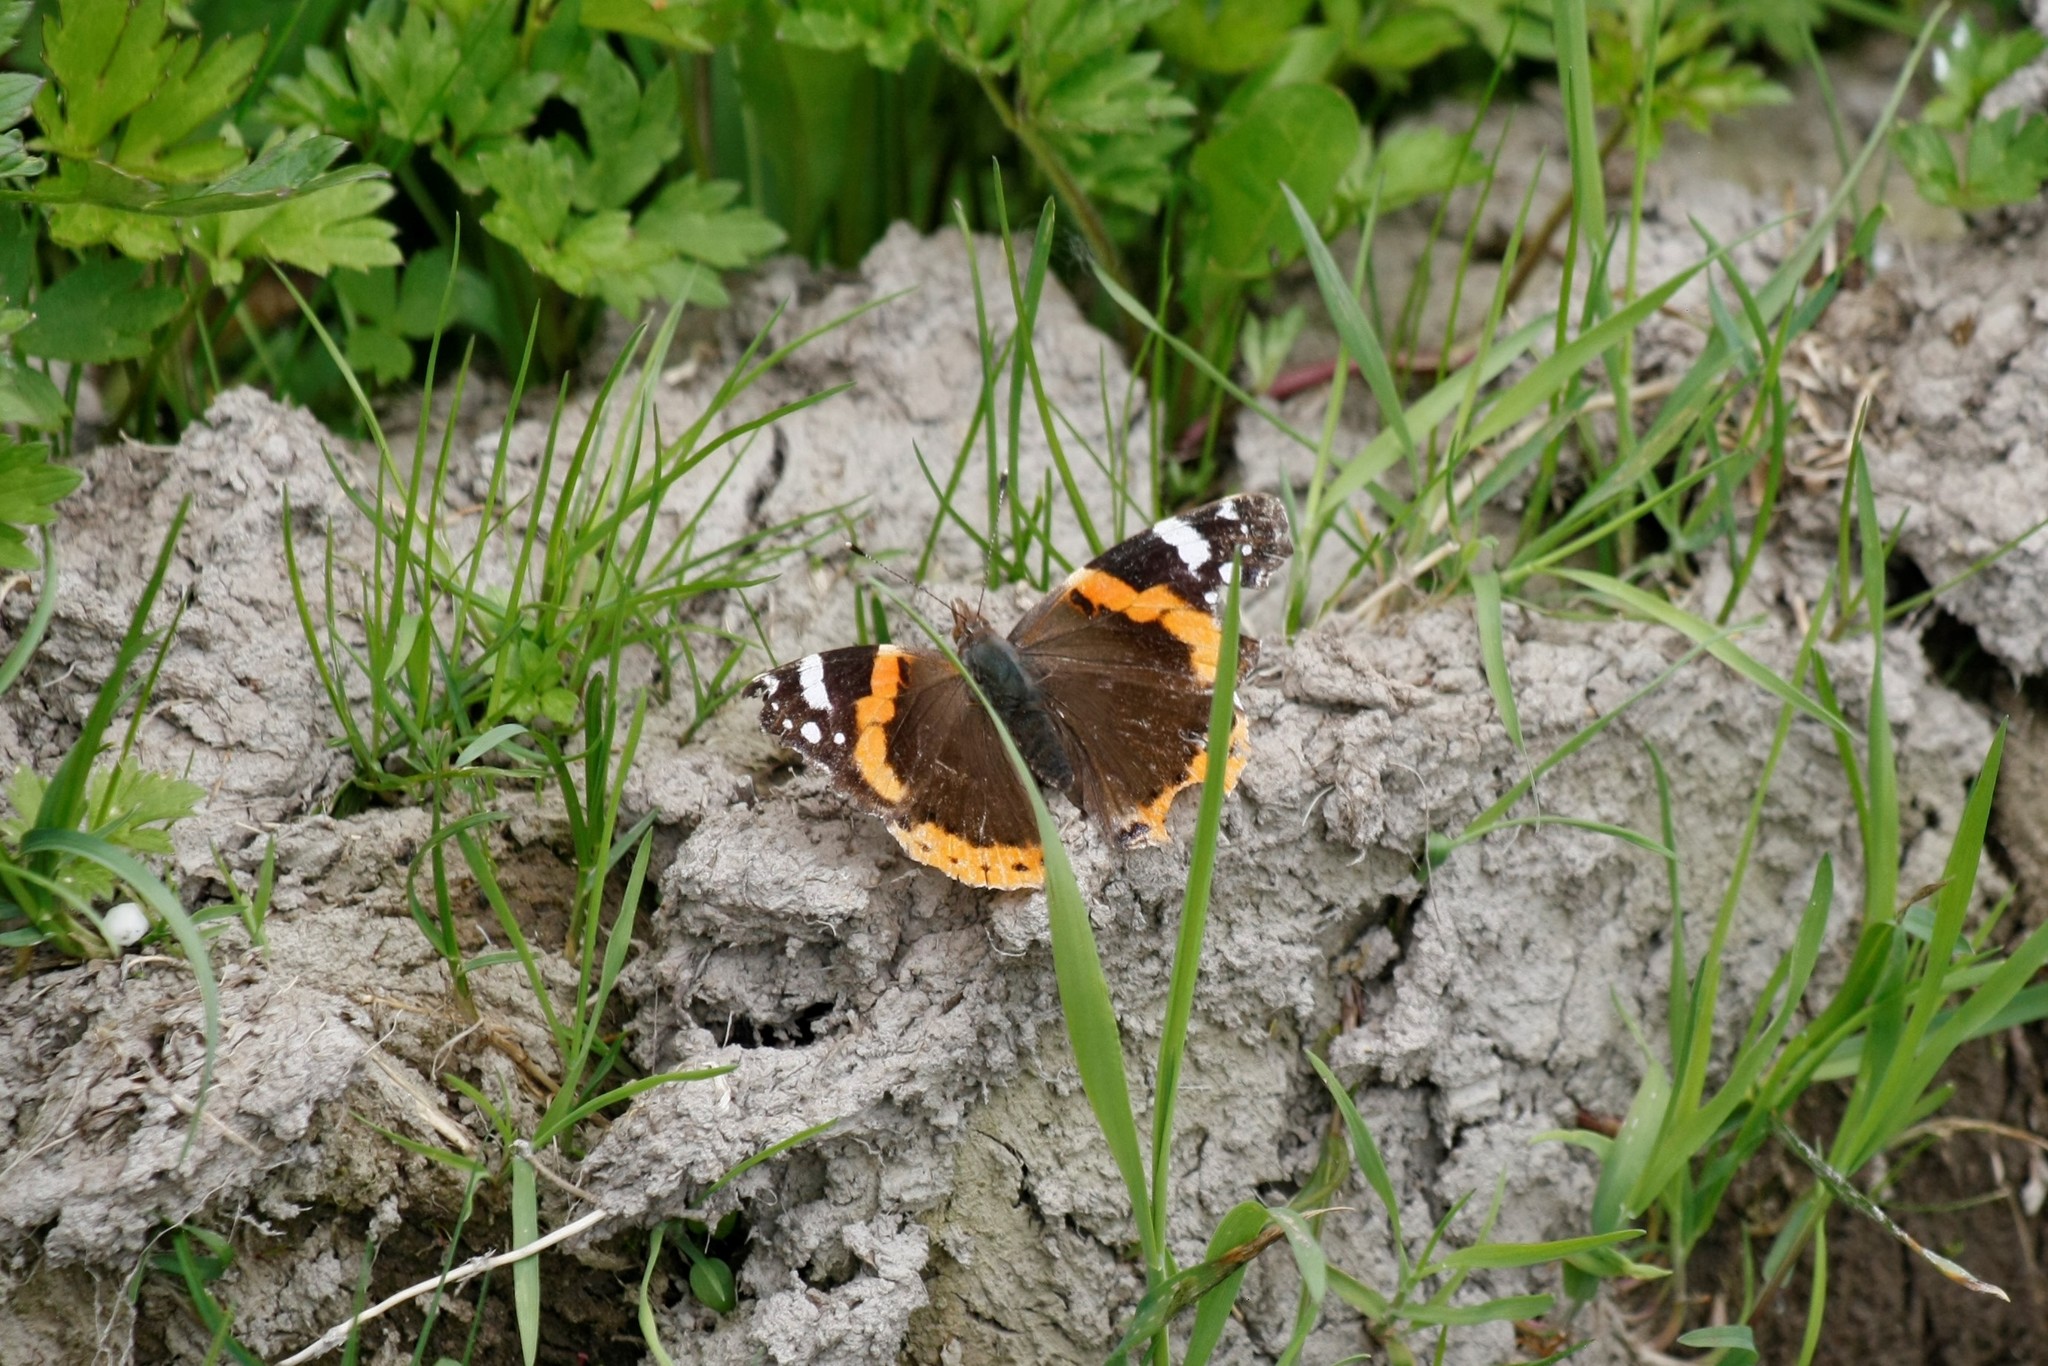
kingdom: Animalia
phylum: Arthropoda
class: Insecta
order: Lepidoptera
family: Nymphalidae
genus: Vanessa
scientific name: Vanessa atalanta
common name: Red admiral
